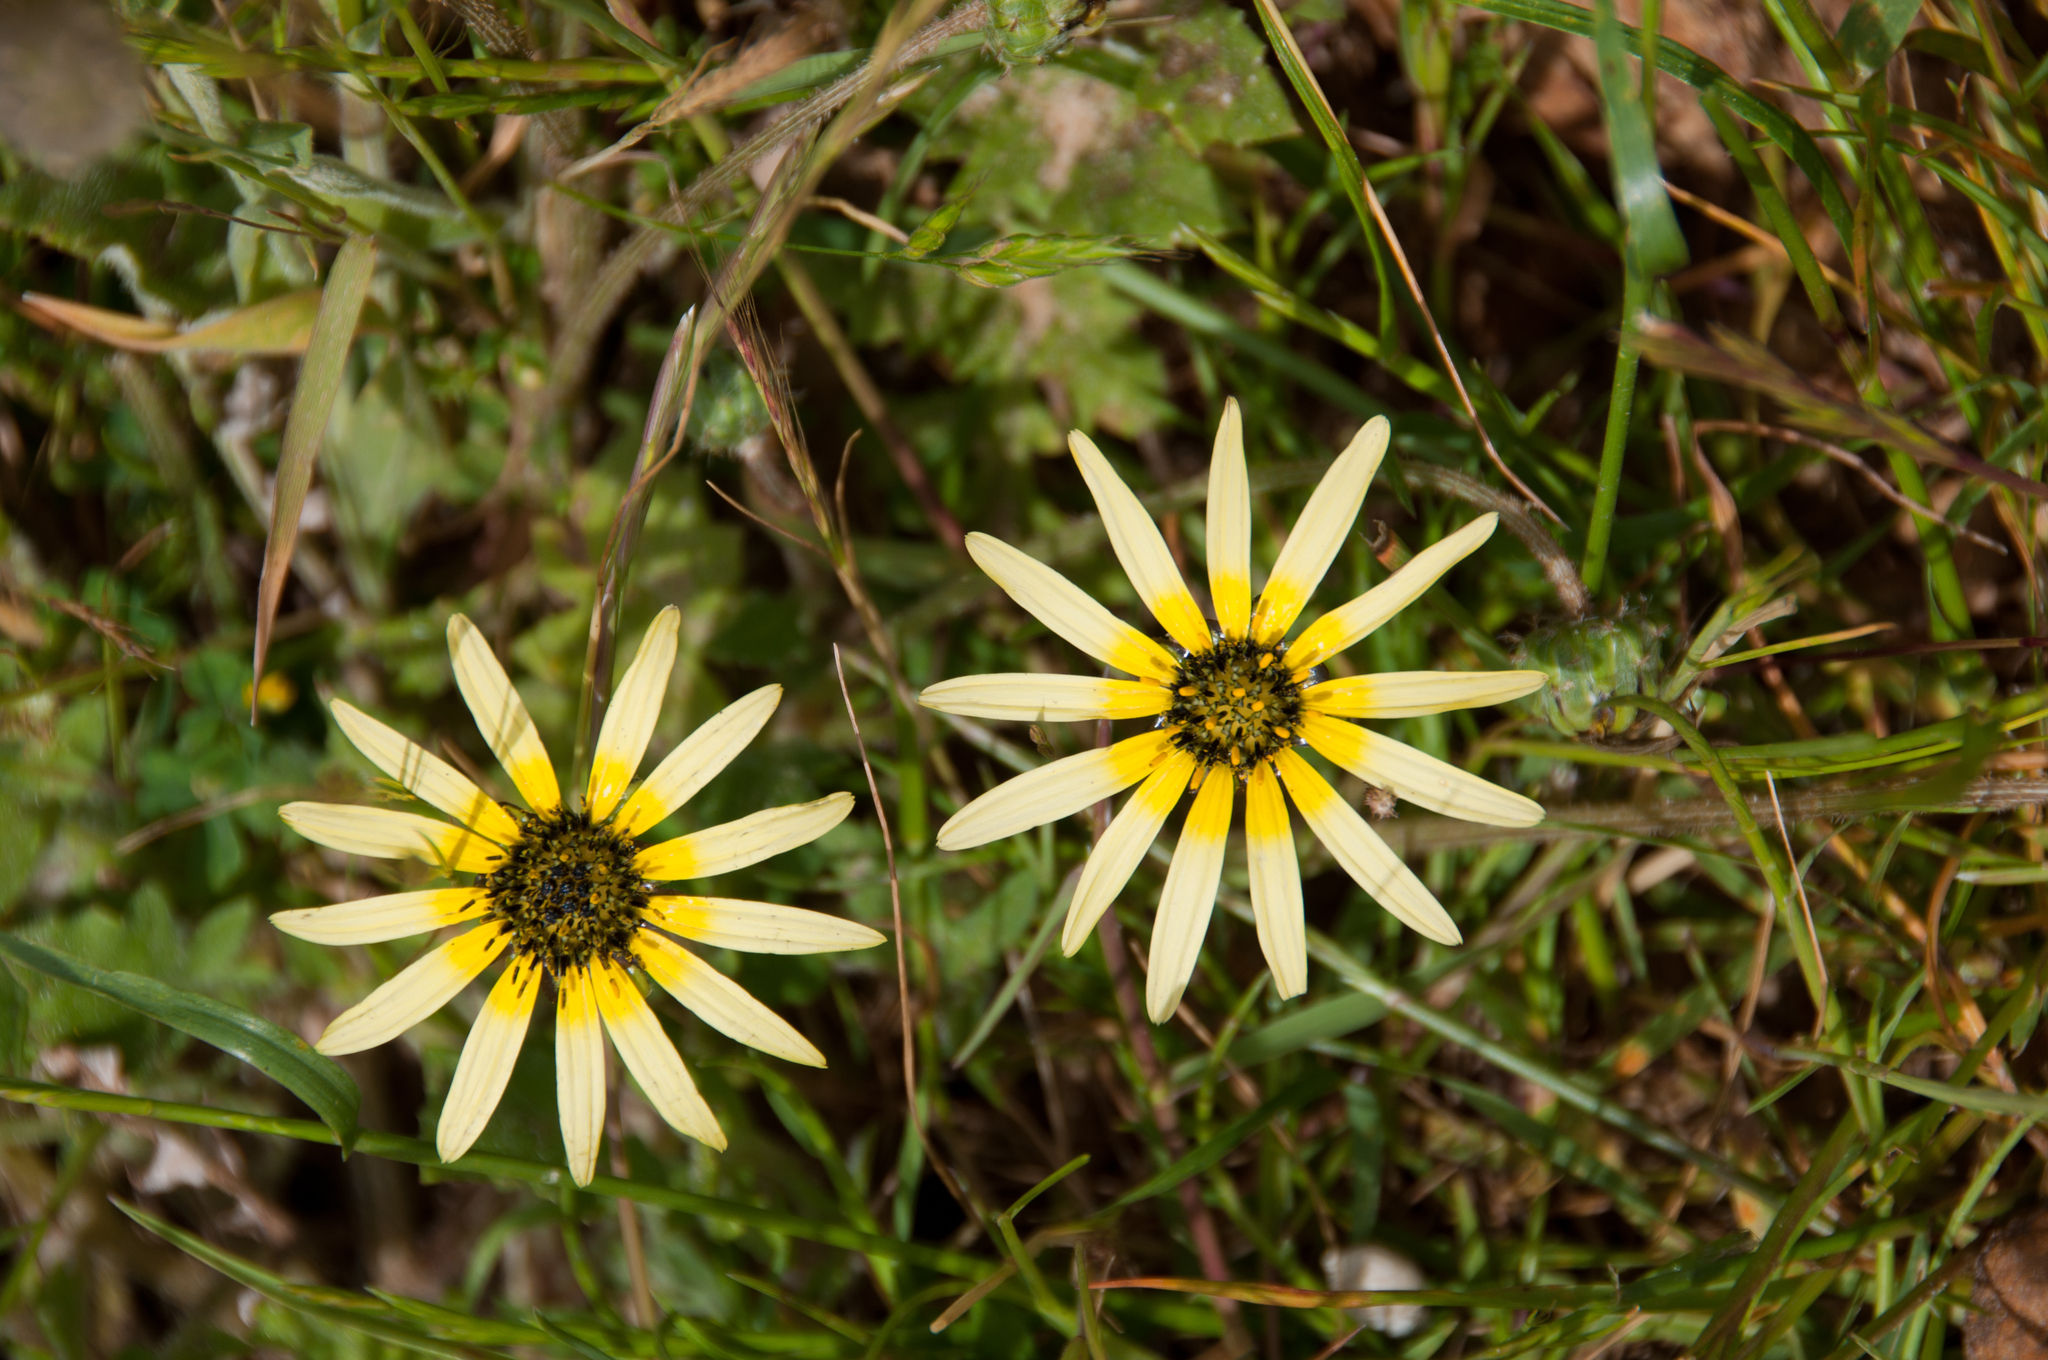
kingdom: Plantae
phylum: Tracheophyta
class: Magnoliopsida
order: Asterales
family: Asteraceae
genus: Arctotheca
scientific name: Arctotheca calendula
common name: Capeweed
